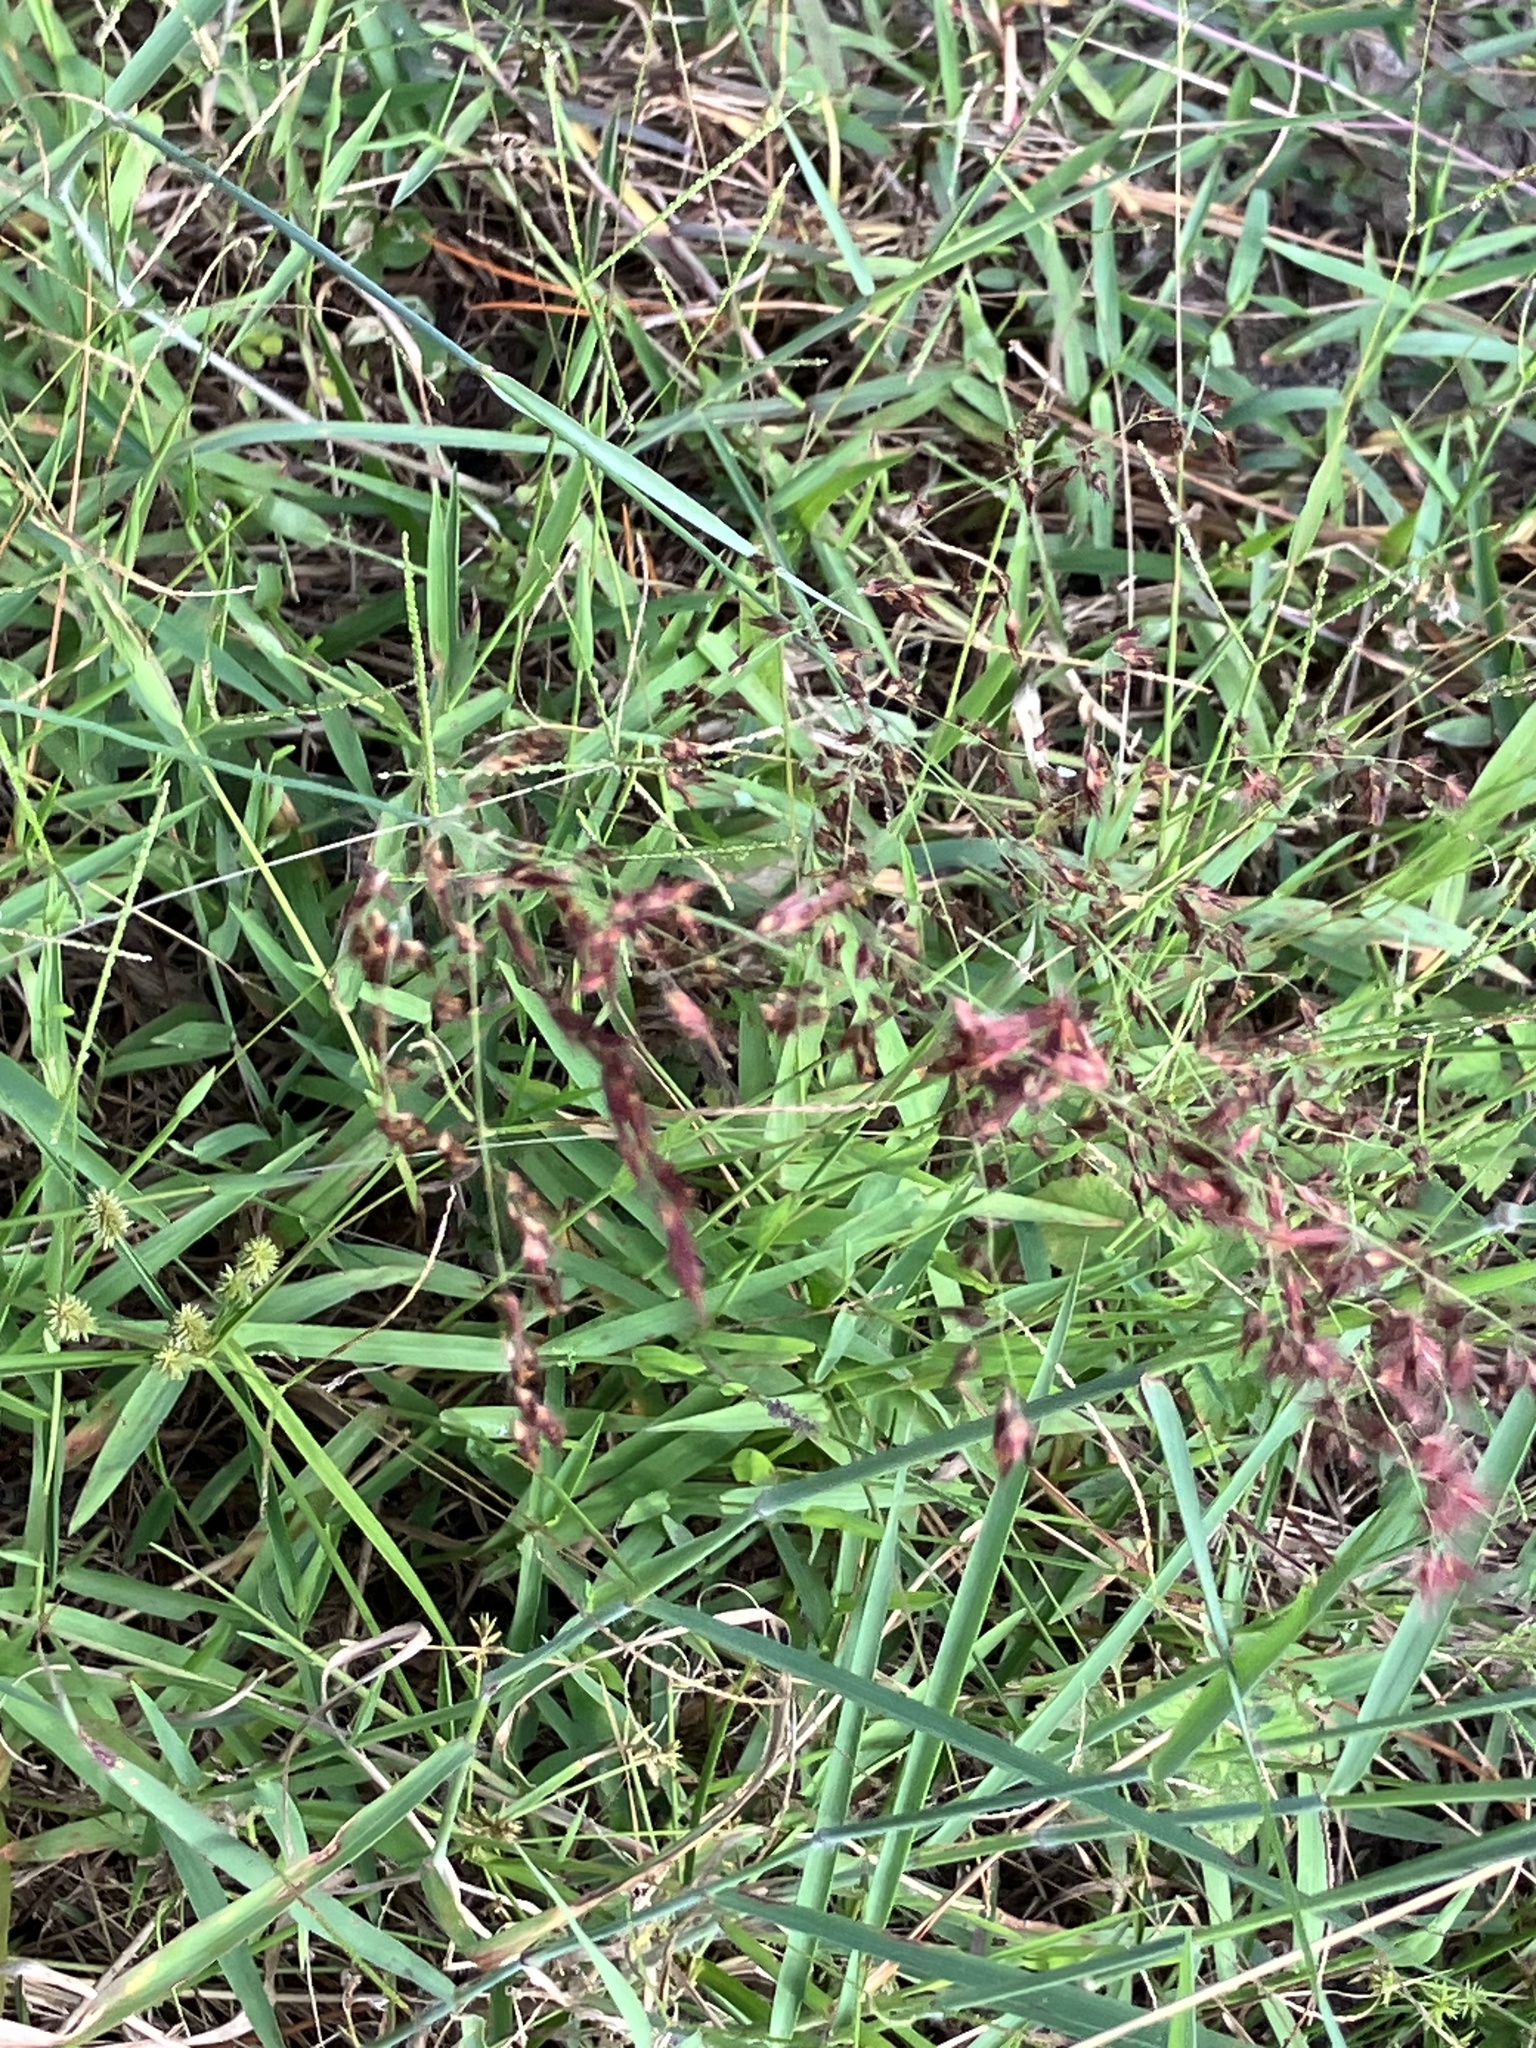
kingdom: Plantae
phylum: Tracheophyta
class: Liliopsida
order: Poales
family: Poaceae
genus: Melinis
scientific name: Melinis repens
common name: Rose natal grass
